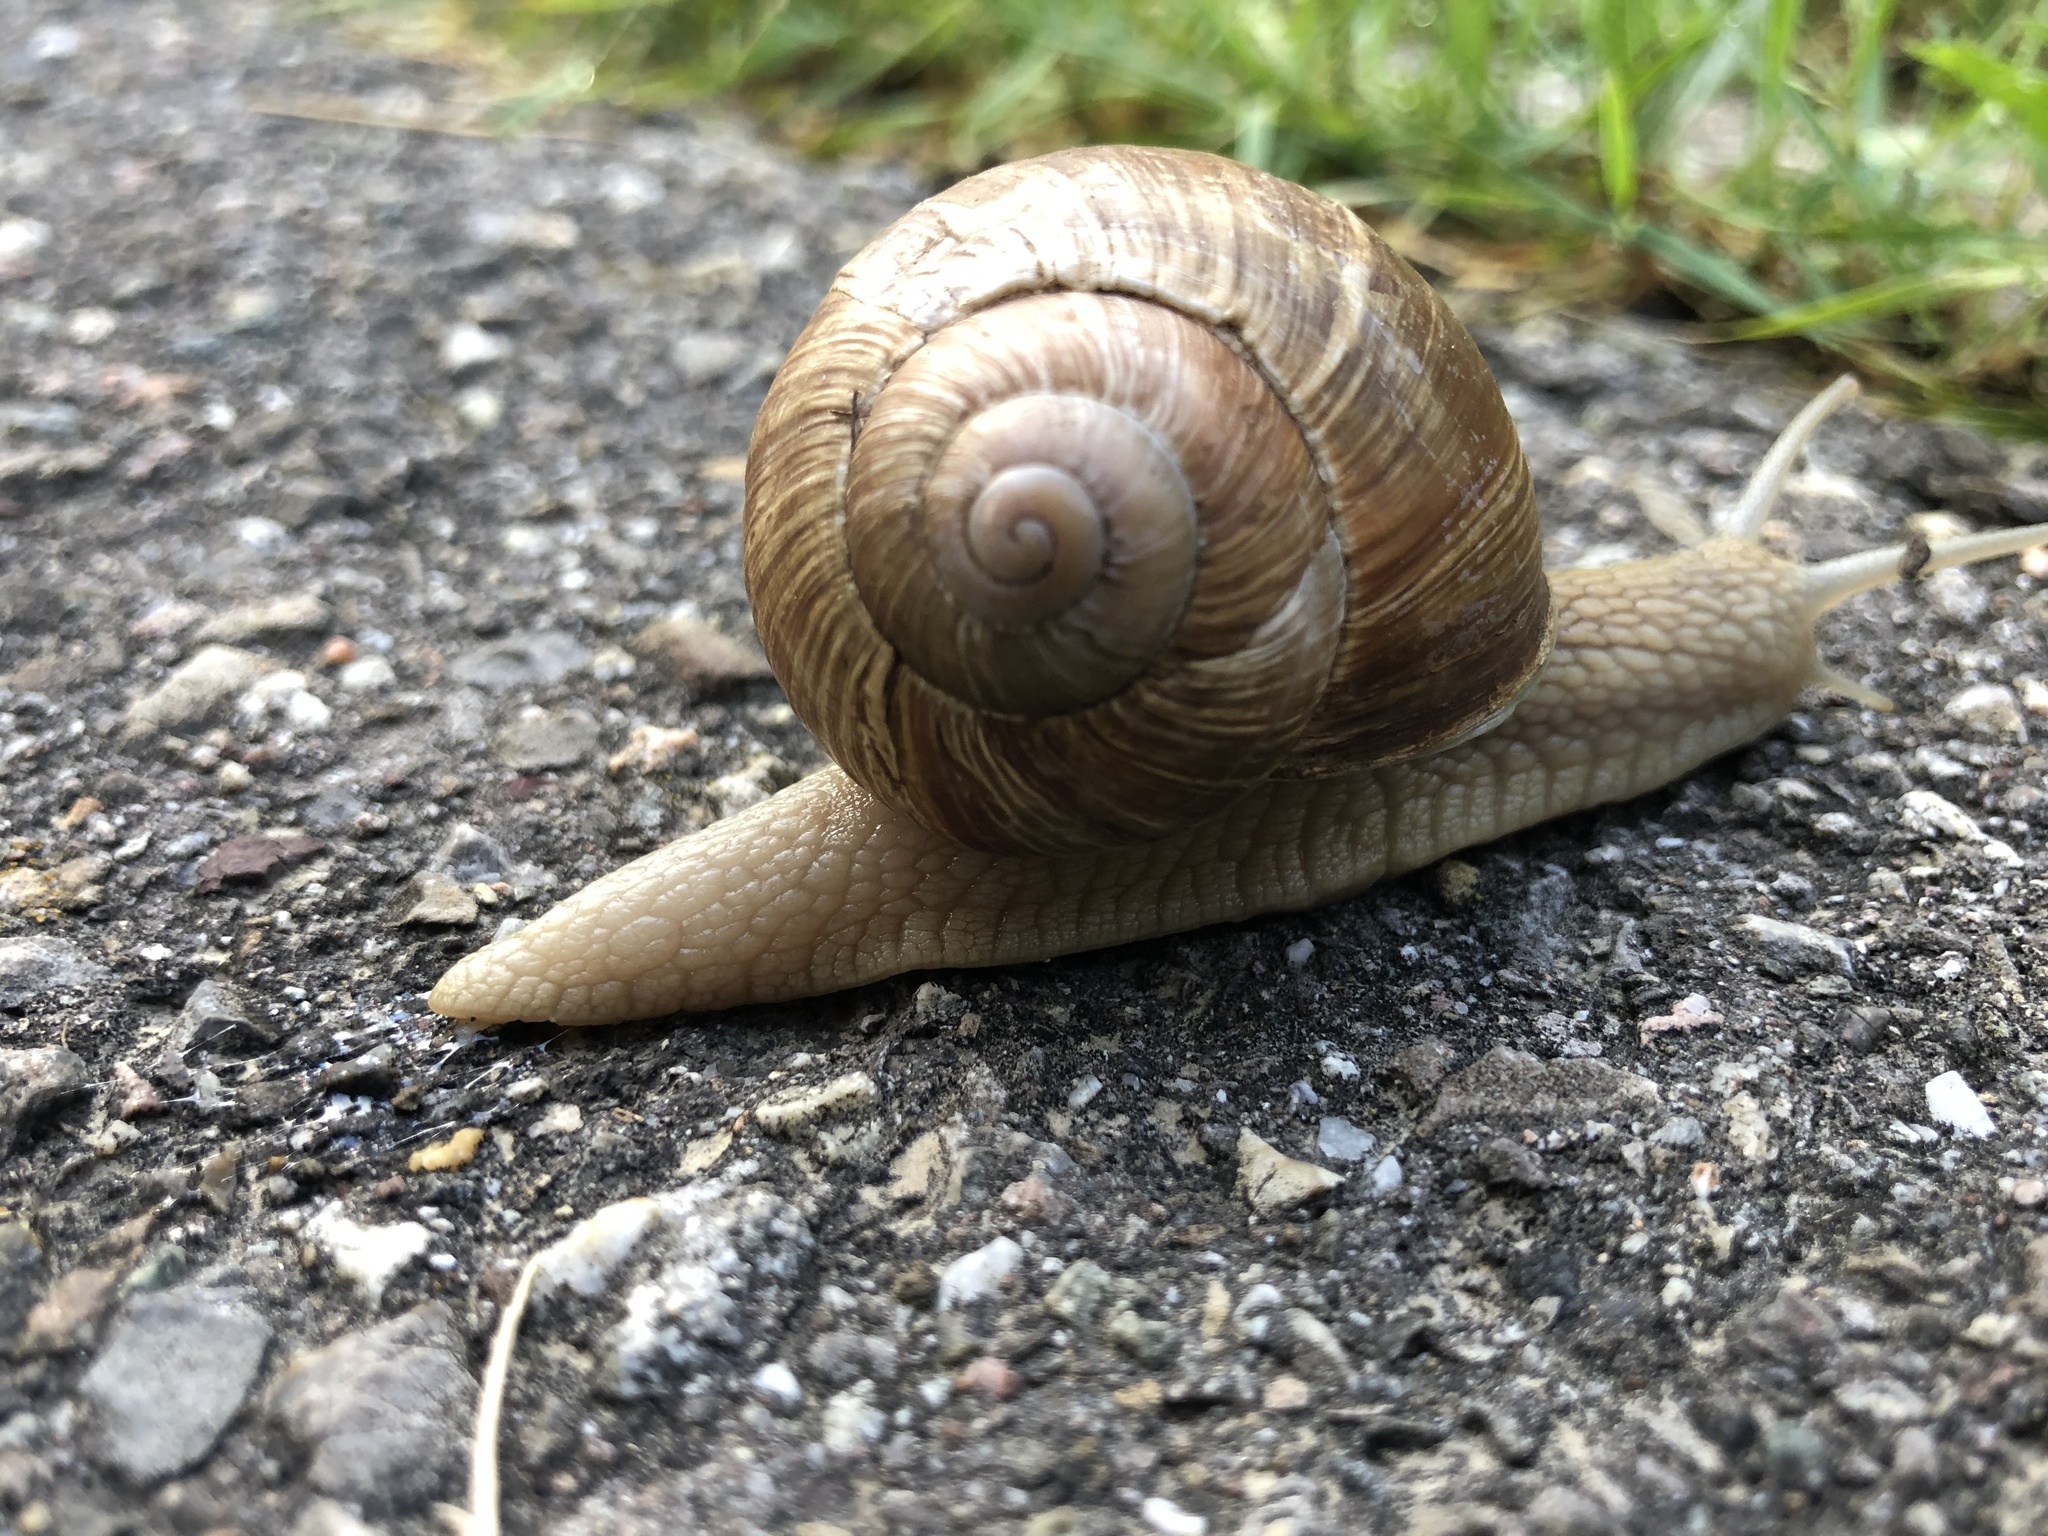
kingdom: Animalia
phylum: Mollusca
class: Gastropoda
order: Stylommatophora
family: Helicidae
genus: Helix
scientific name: Helix pomatia
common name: Roman snail
